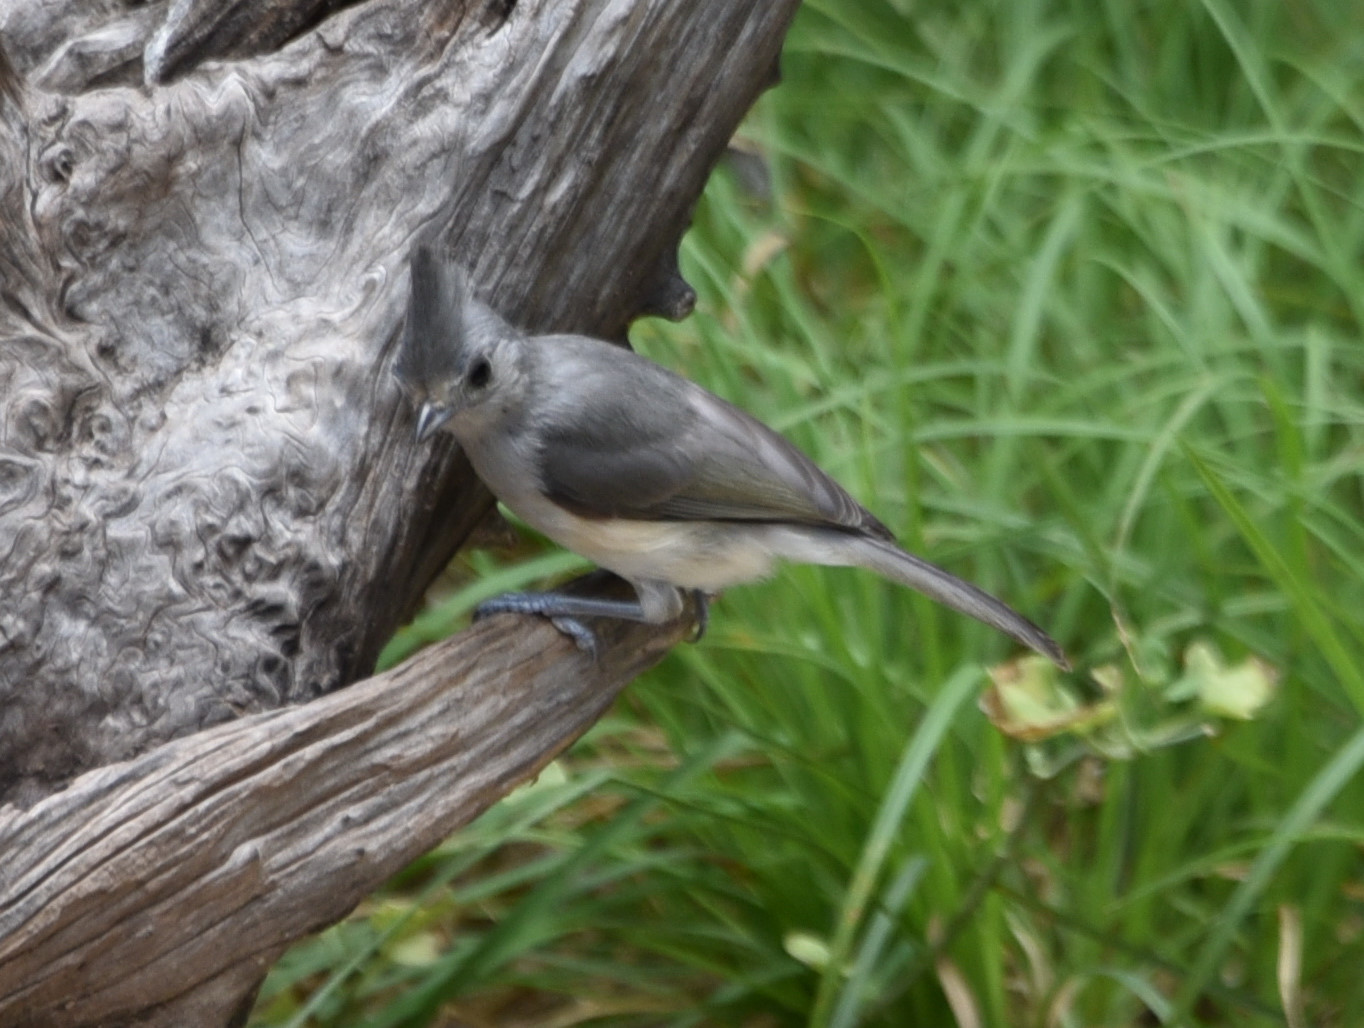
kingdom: Animalia
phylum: Chordata
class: Aves
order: Passeriformes
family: Paridae
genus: Baeolophus
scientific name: Baeolophus atricristatus
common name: Black-crested titmouse
